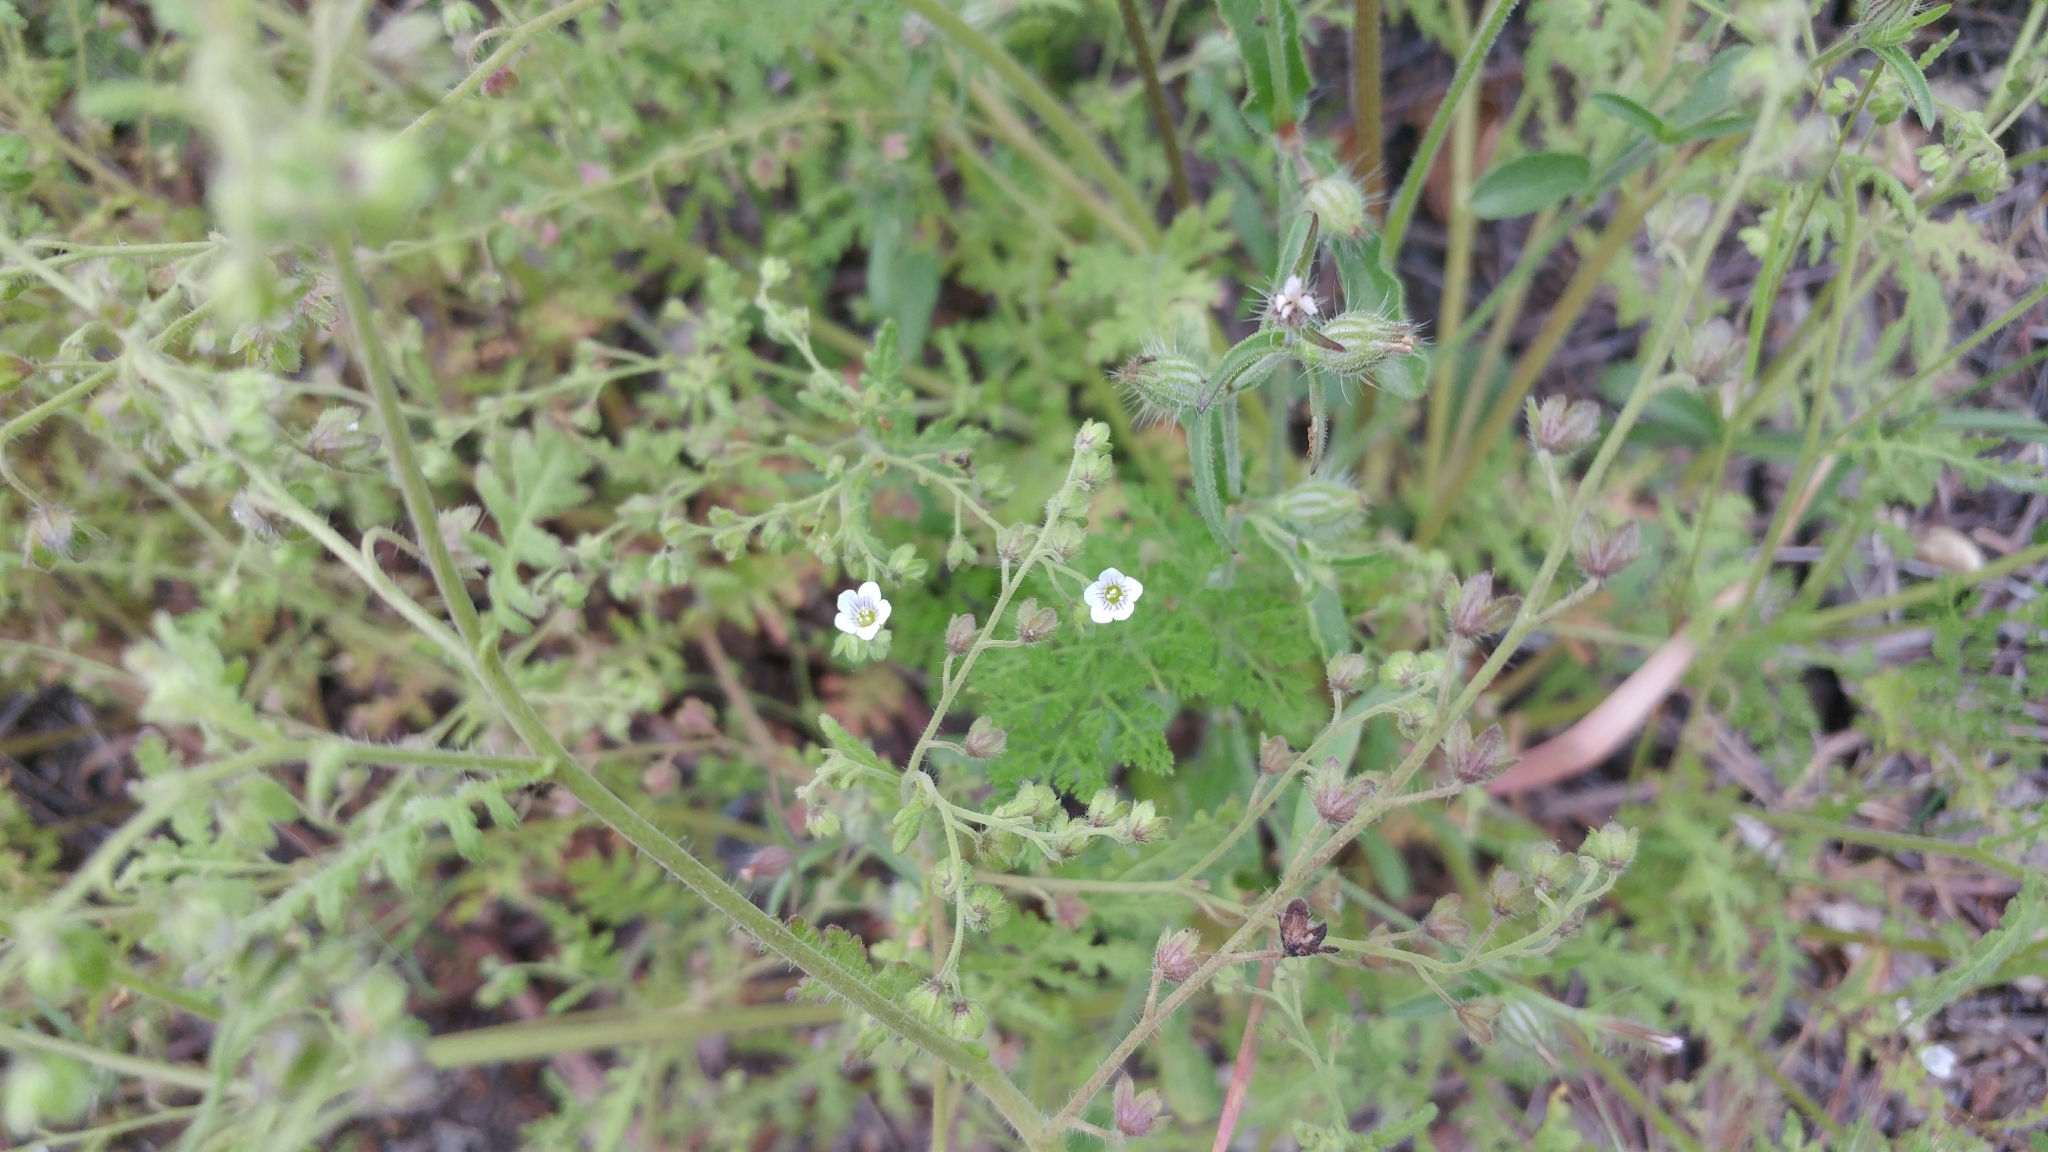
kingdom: Plantae
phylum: Tracheophyta
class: Magnoliopsida
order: Boraginales
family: Hydrophyllaceae
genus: Eucrypta
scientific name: Eucrypta chrysanthemifolia
